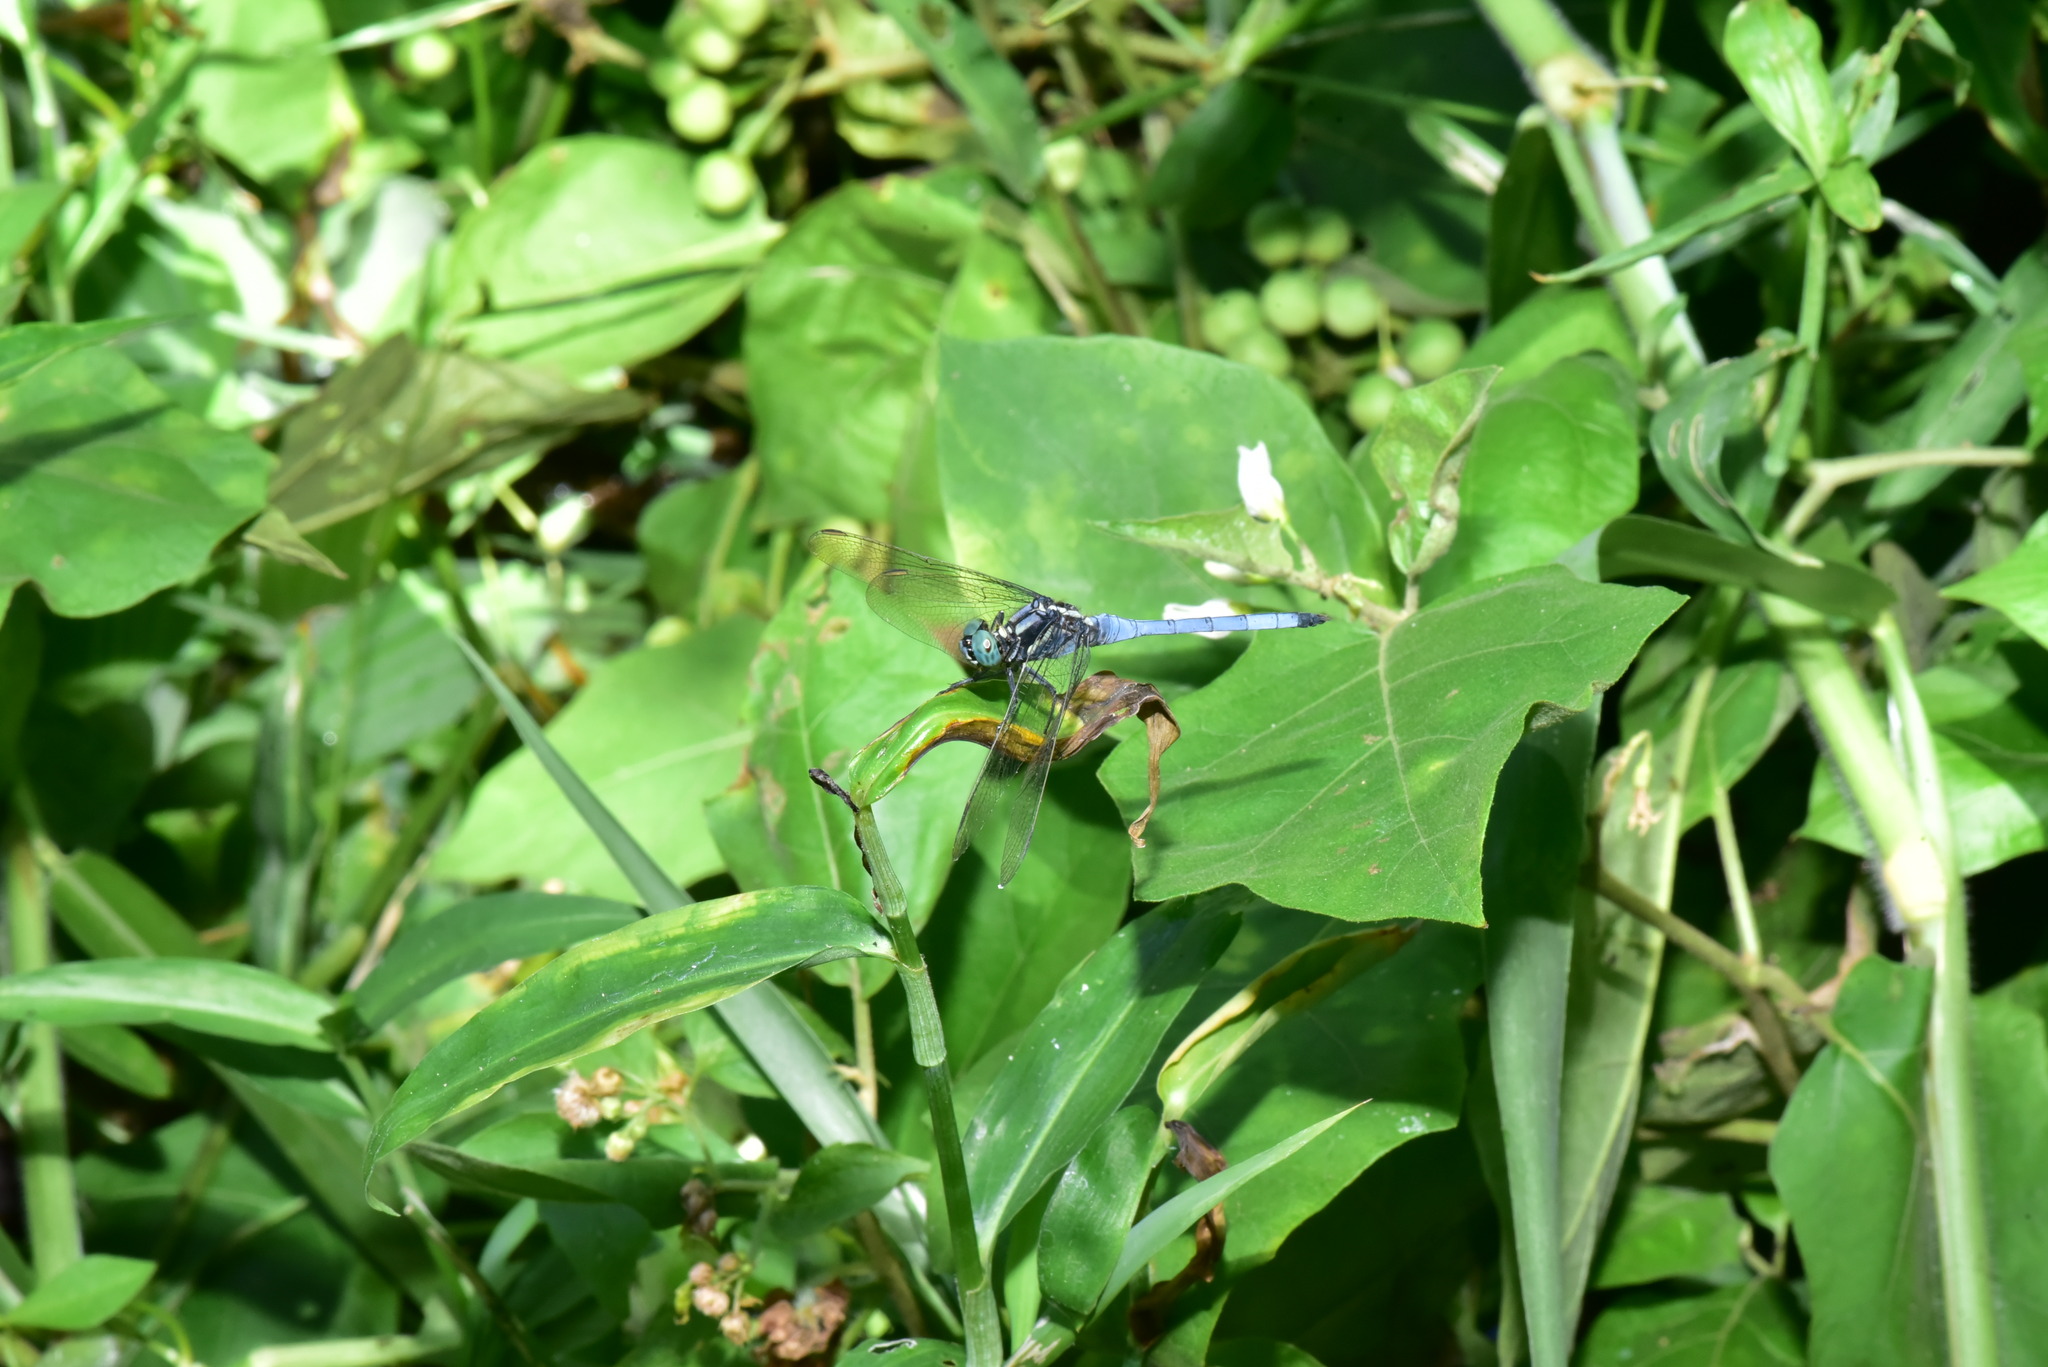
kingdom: Animalia
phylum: Arthropoda
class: Insecta
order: Odonata
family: Libellulidae
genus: Orthetrum
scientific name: Orthetrum luzonicum
